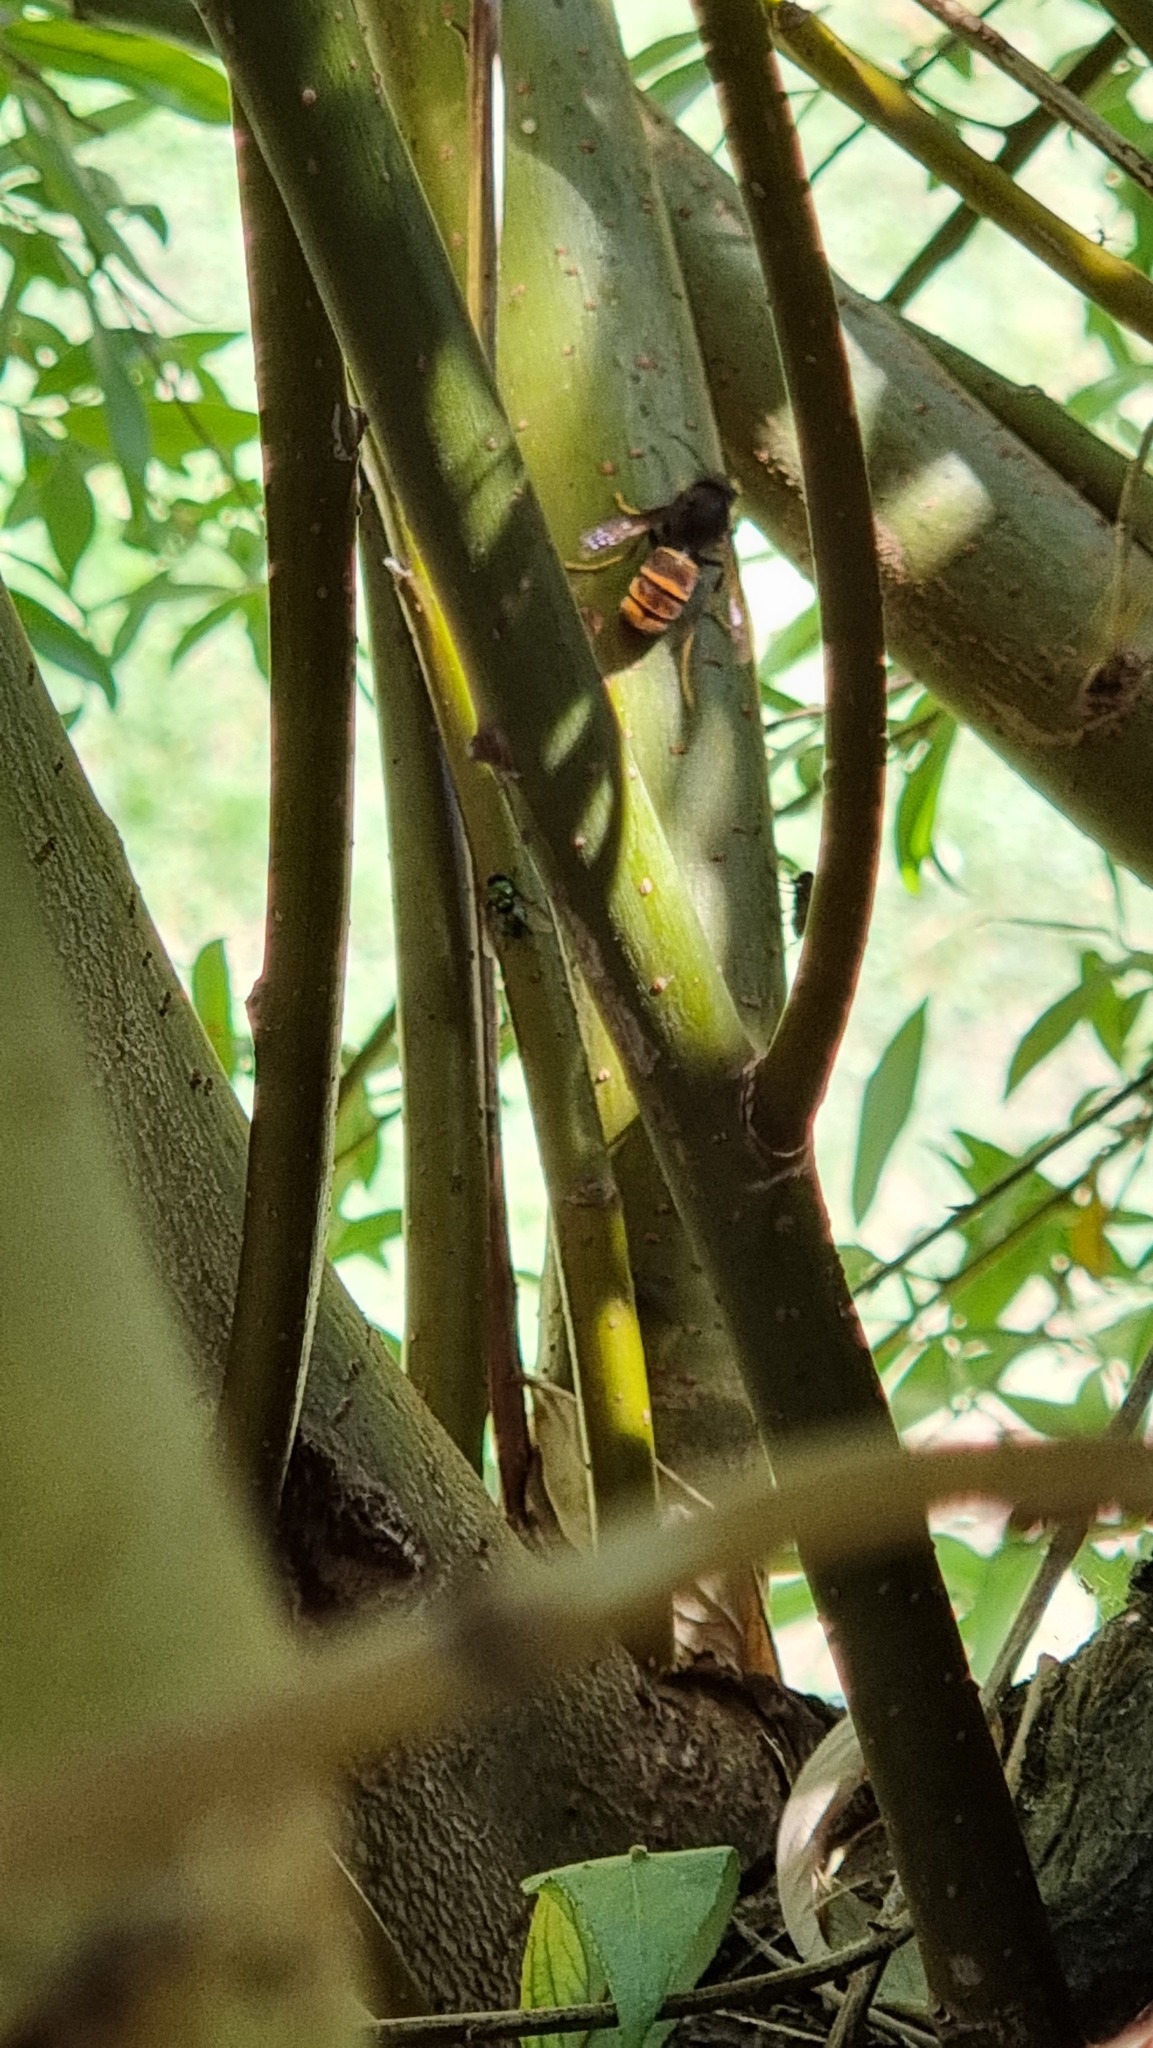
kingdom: Animalia
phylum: Arthropoda
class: Insecta
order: Hymenoptera
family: Vespidae
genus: Vespa
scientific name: Vespa velutina
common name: Asian hornet
